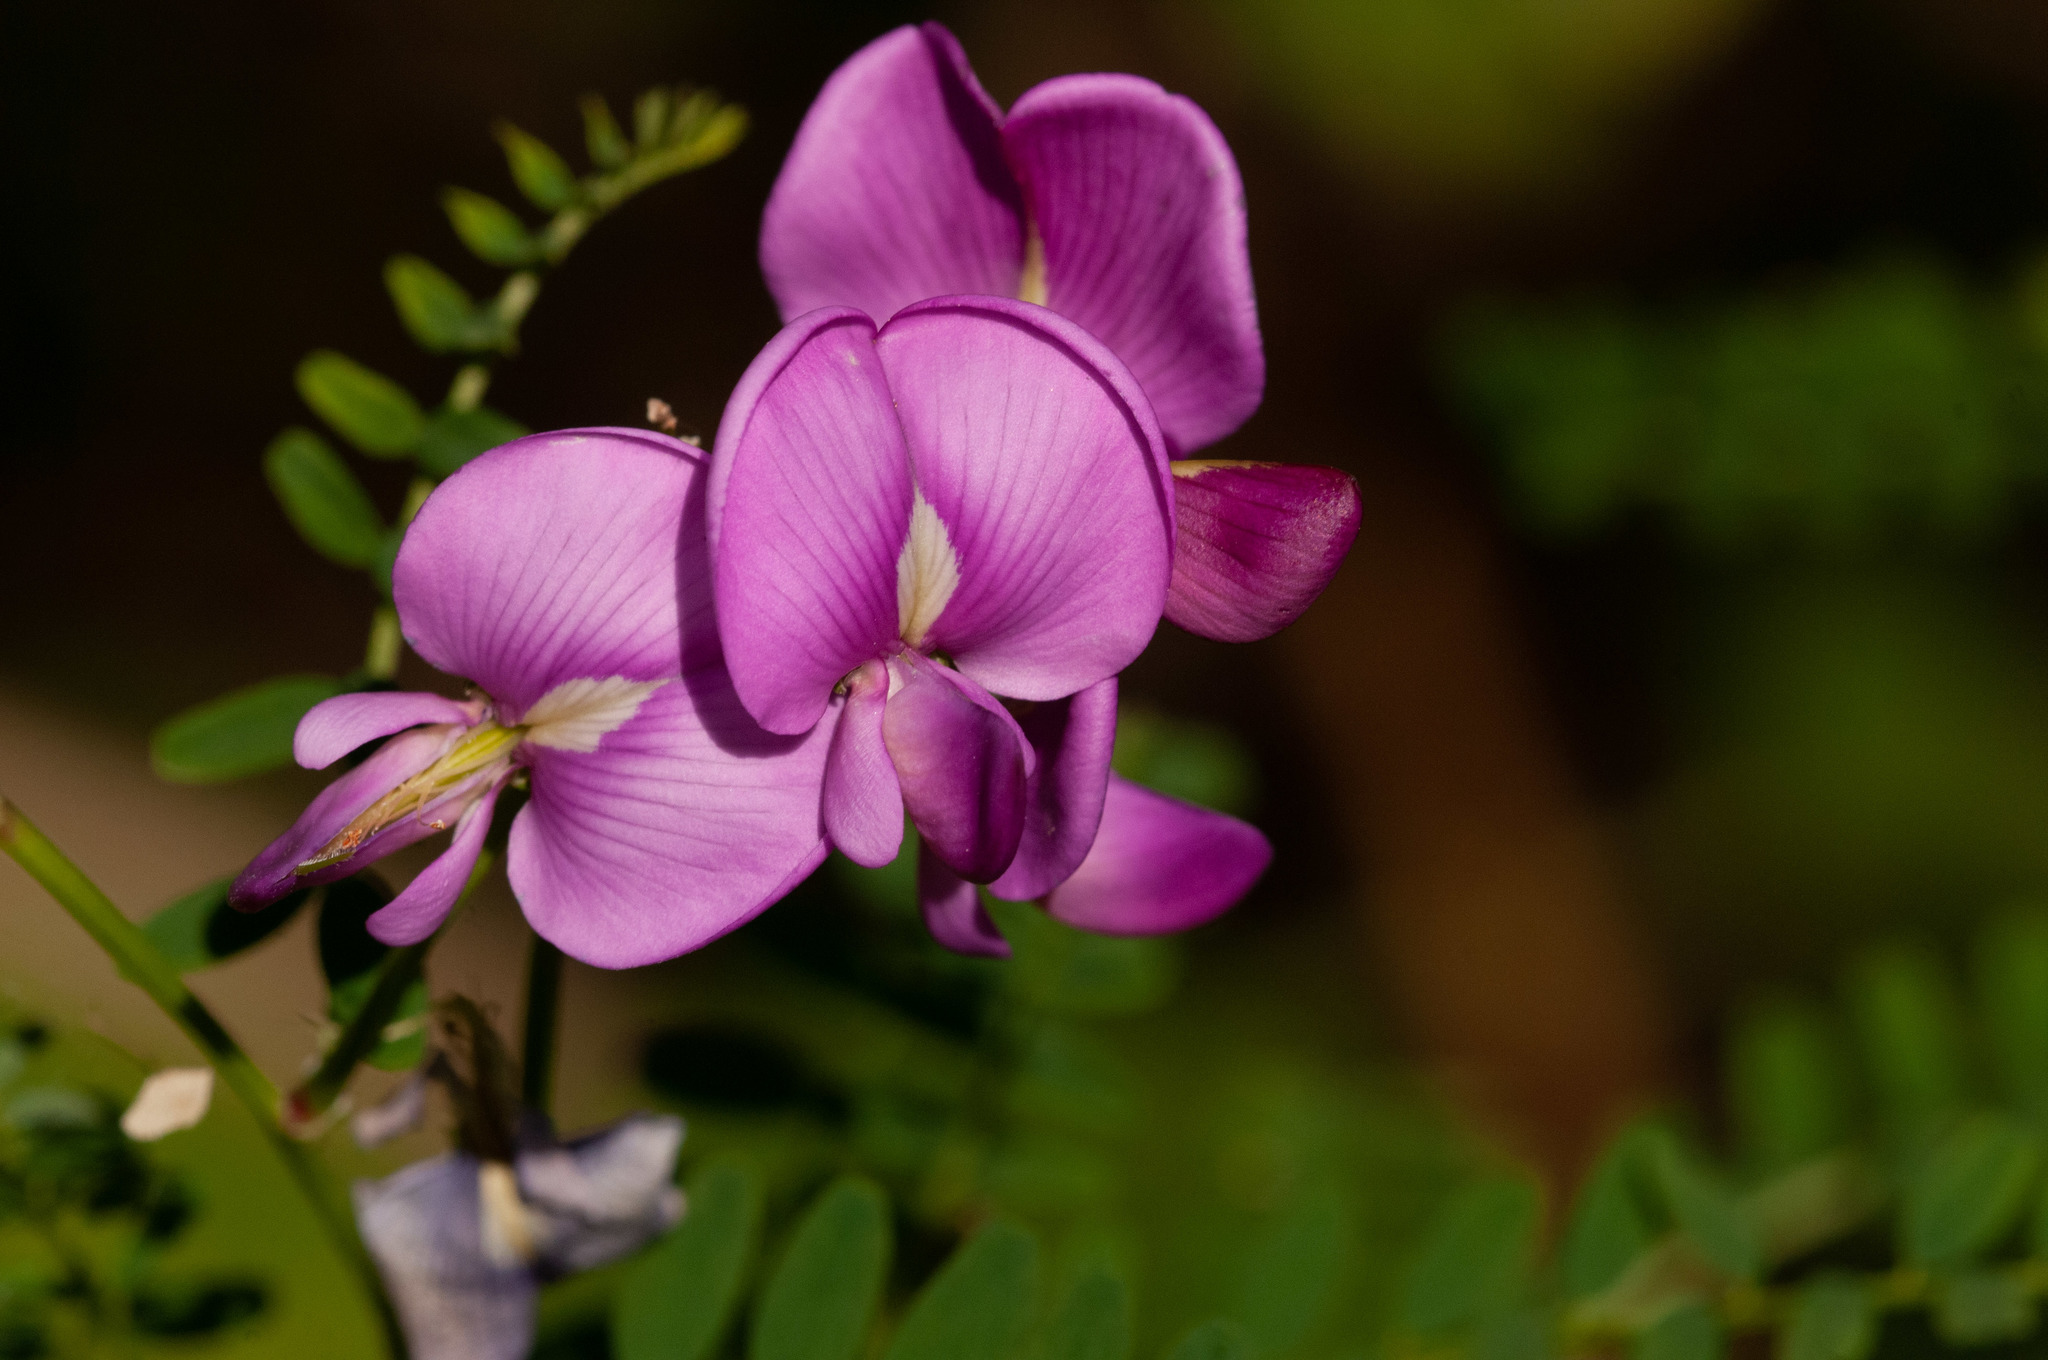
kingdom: Plantae
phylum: Tracheophyta
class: Magnoliopsida
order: Fabales
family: Fabaceae
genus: Swainsona
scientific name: Swainsona galegifolia
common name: Swanflower
